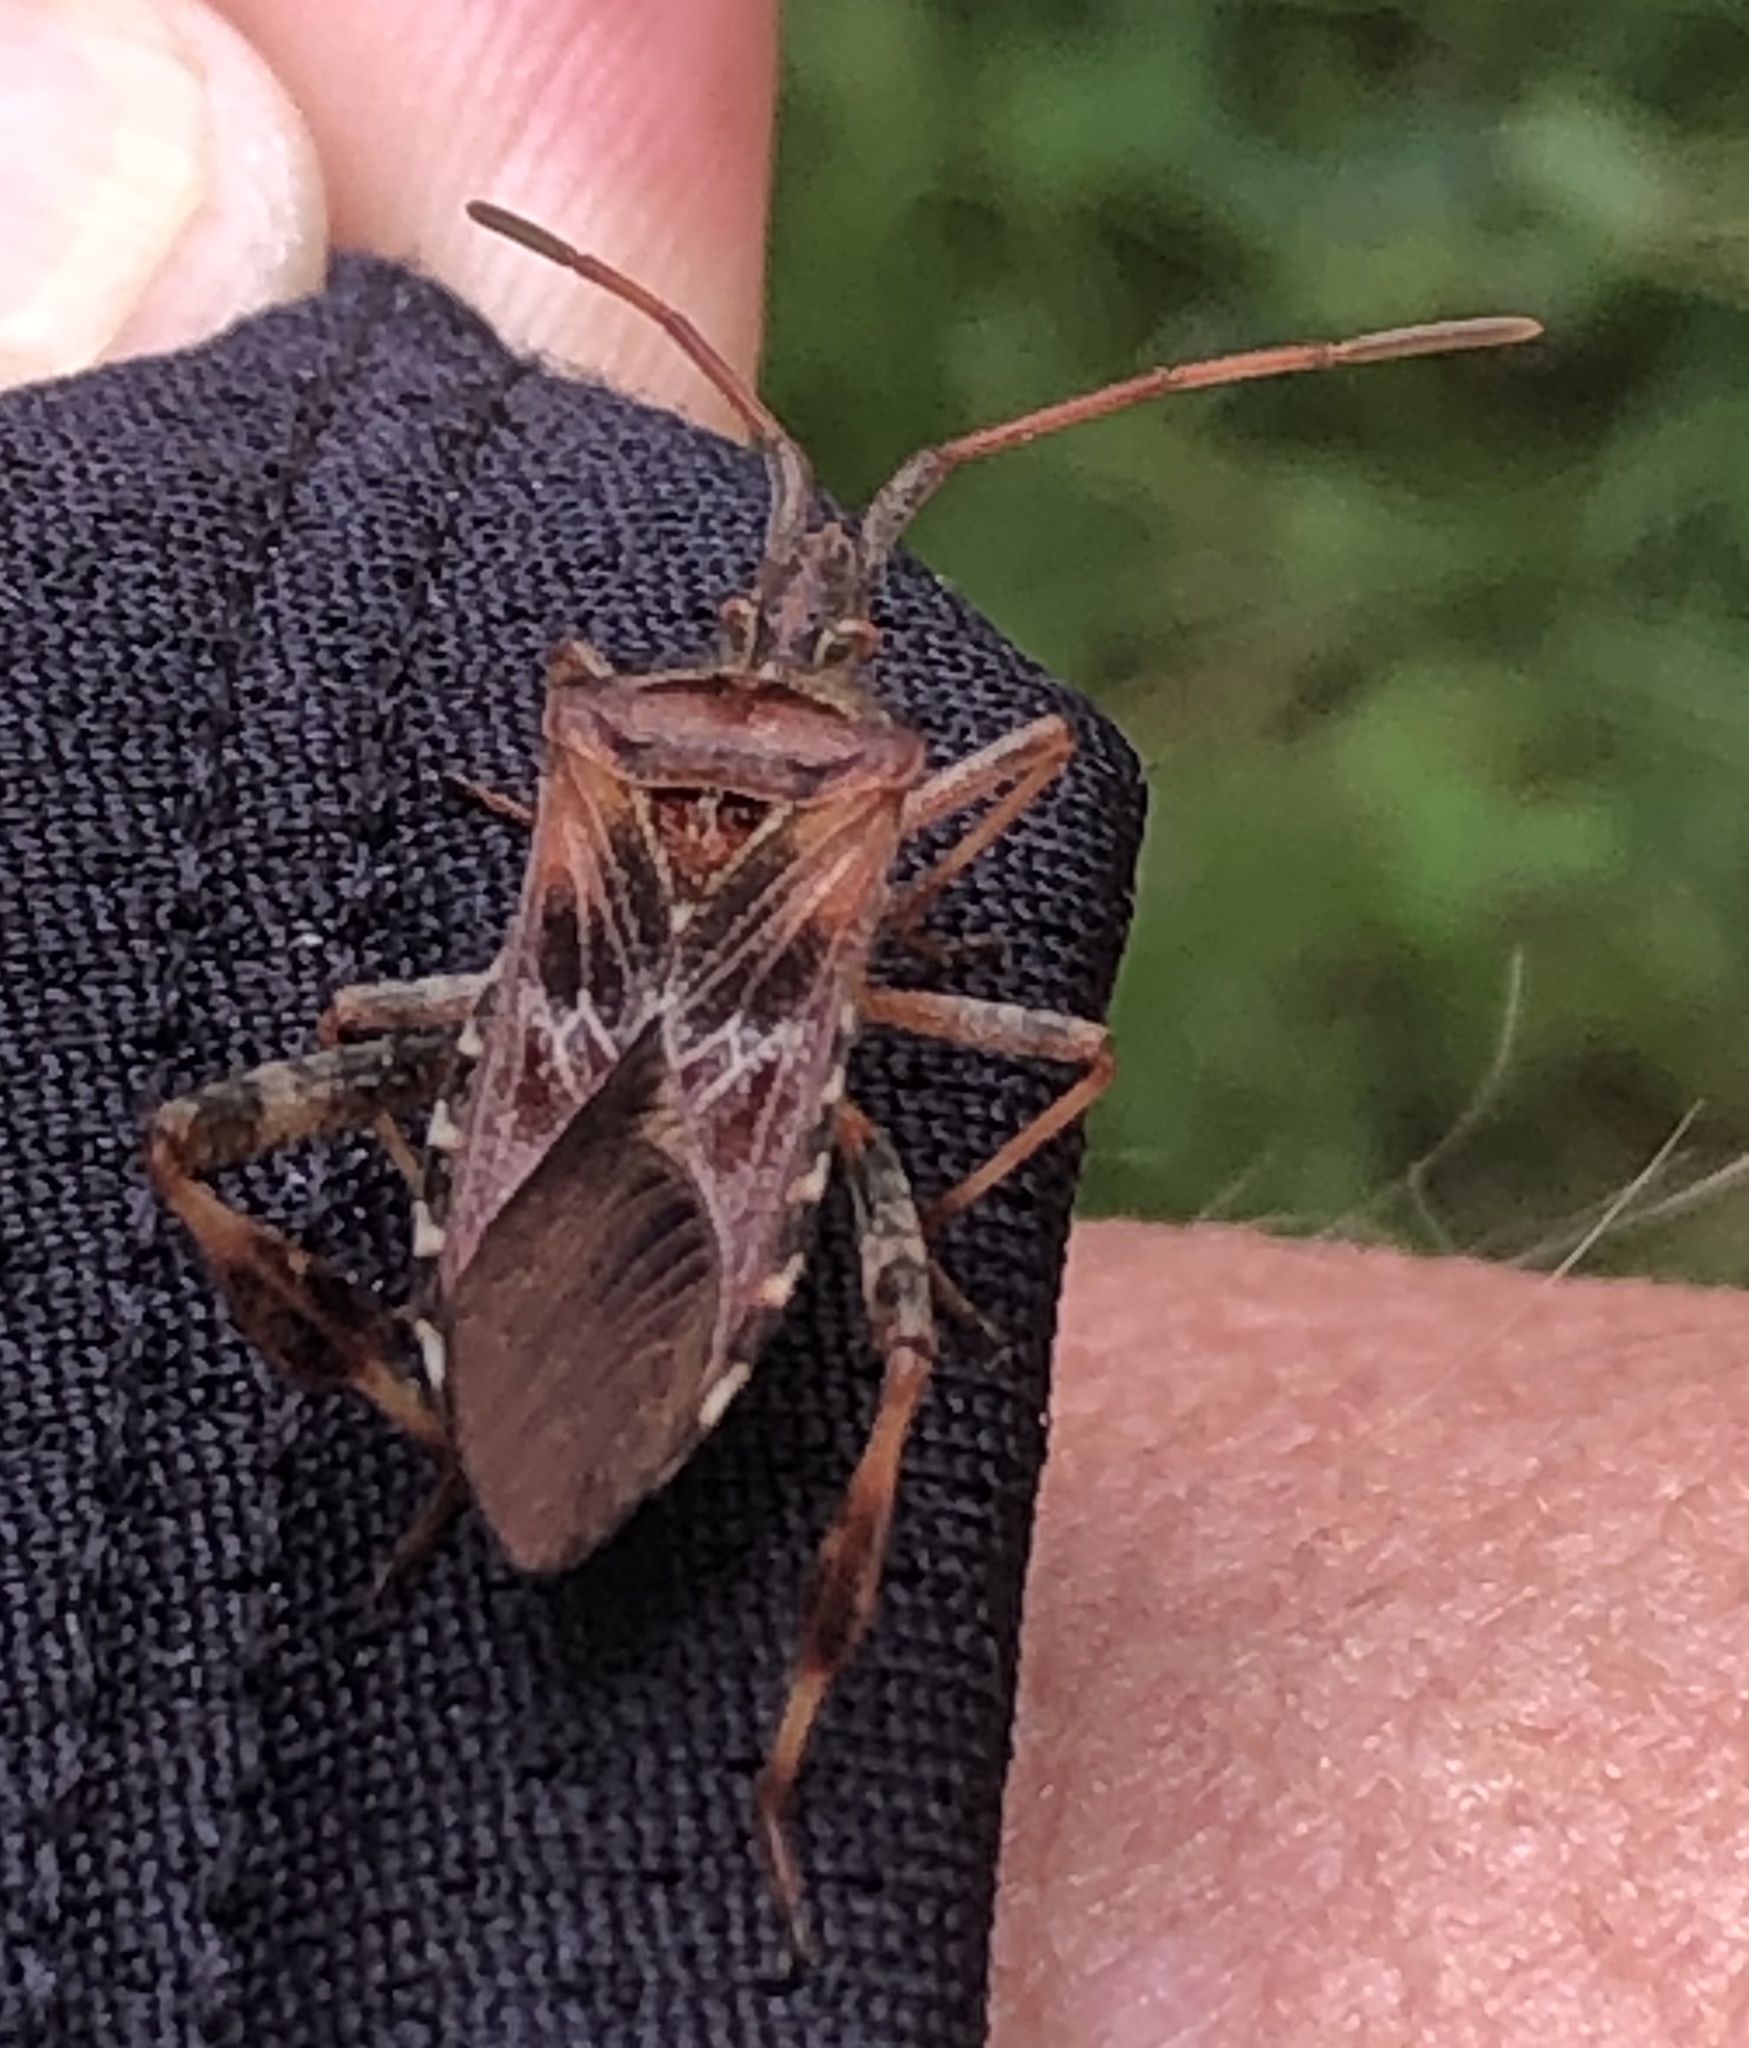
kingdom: Animalia
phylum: Arthropoda
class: Insecta
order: Hemiptera
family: Coreidae
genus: Leptoglossus
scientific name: Leptoglossus occidentalis
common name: Western conifer-seed bug
